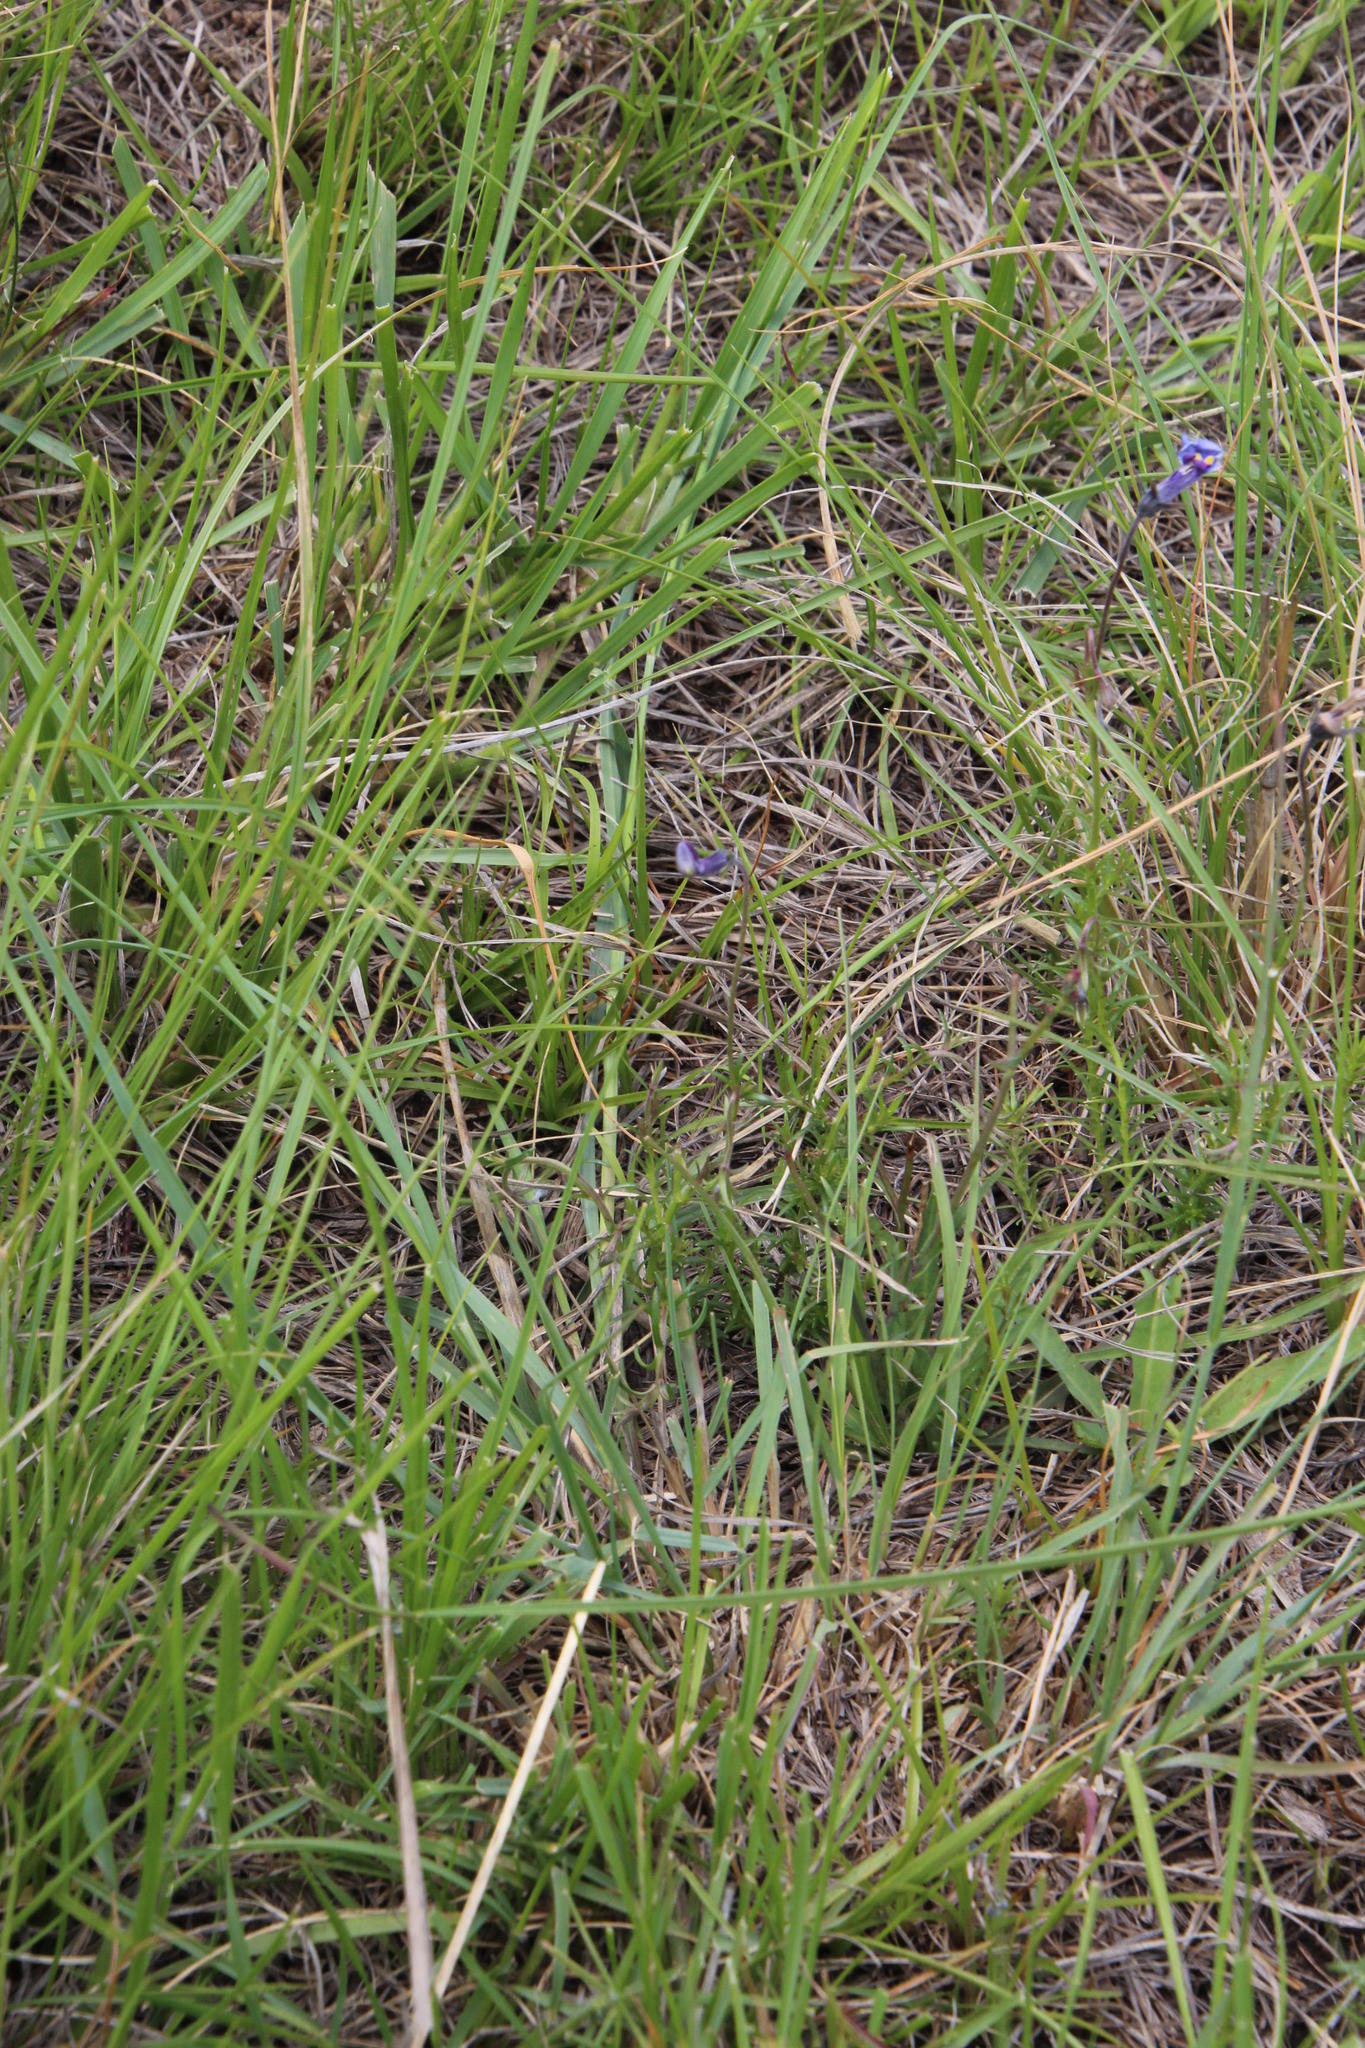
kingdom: Plantae
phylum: Tracheophyta
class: Magnoliopsida
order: Asterales
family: Campanulaceae
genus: Monopsis
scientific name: Monopsis decipiens
